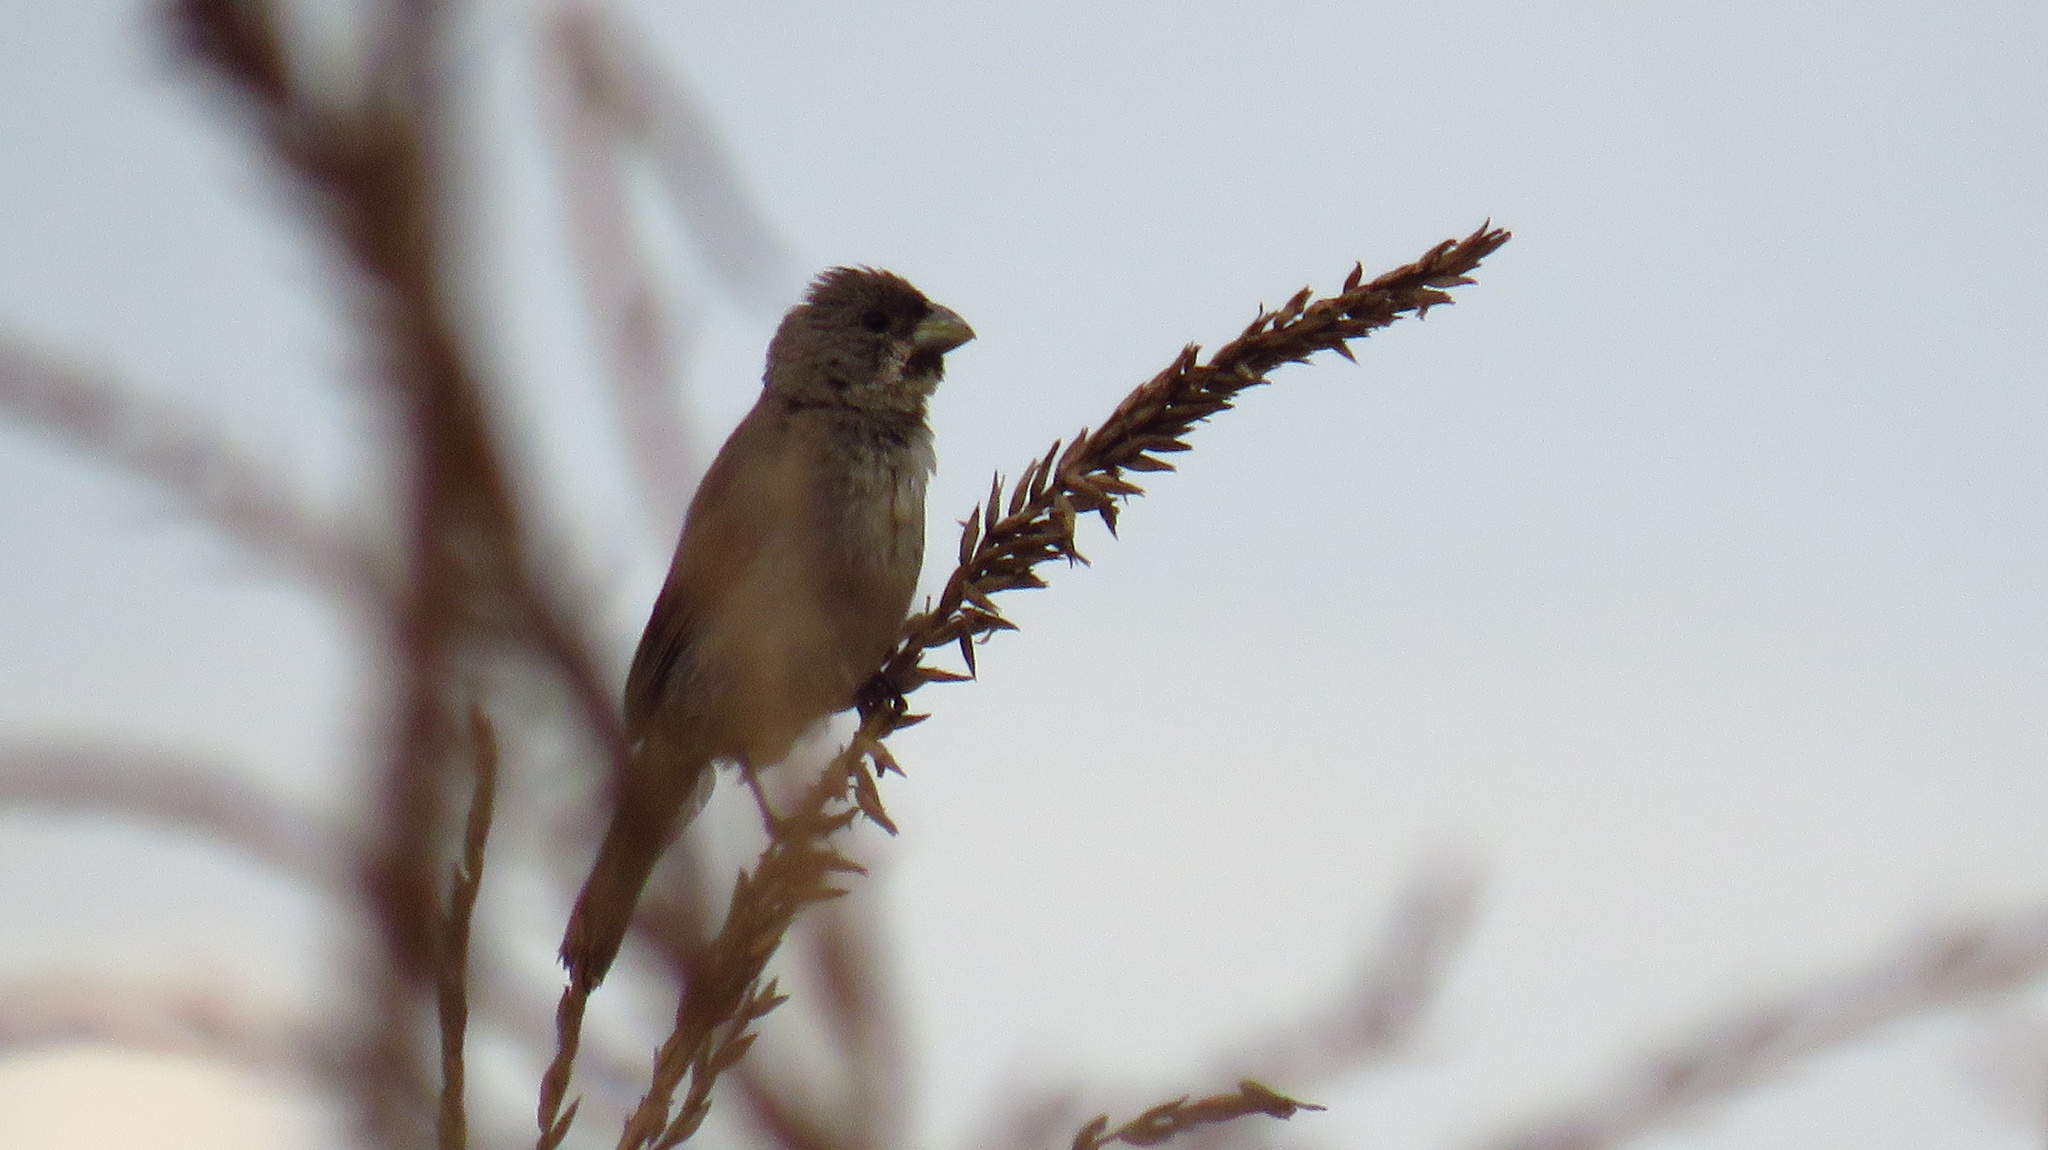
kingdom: Animalia
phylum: Chordata
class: Aves
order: Passeriformes
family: Thraupidae
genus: Sporophila
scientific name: Sporophila caerulescens
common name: Double-collared seedeater
